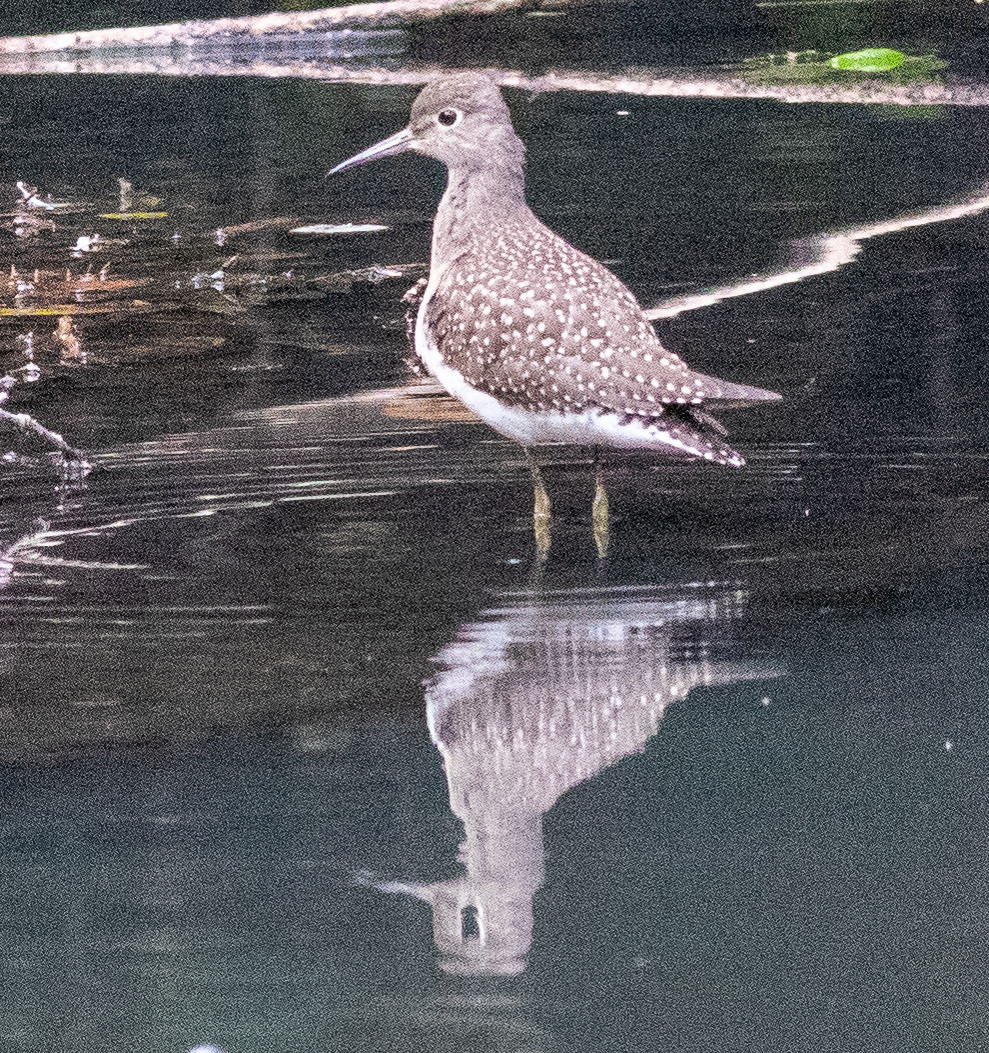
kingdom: Animalia
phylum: Chordata
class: Aves
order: Charadriiformes
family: Scolopacidae
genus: Tringa
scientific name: Tringa solitaria
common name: Solitary sandpiper
